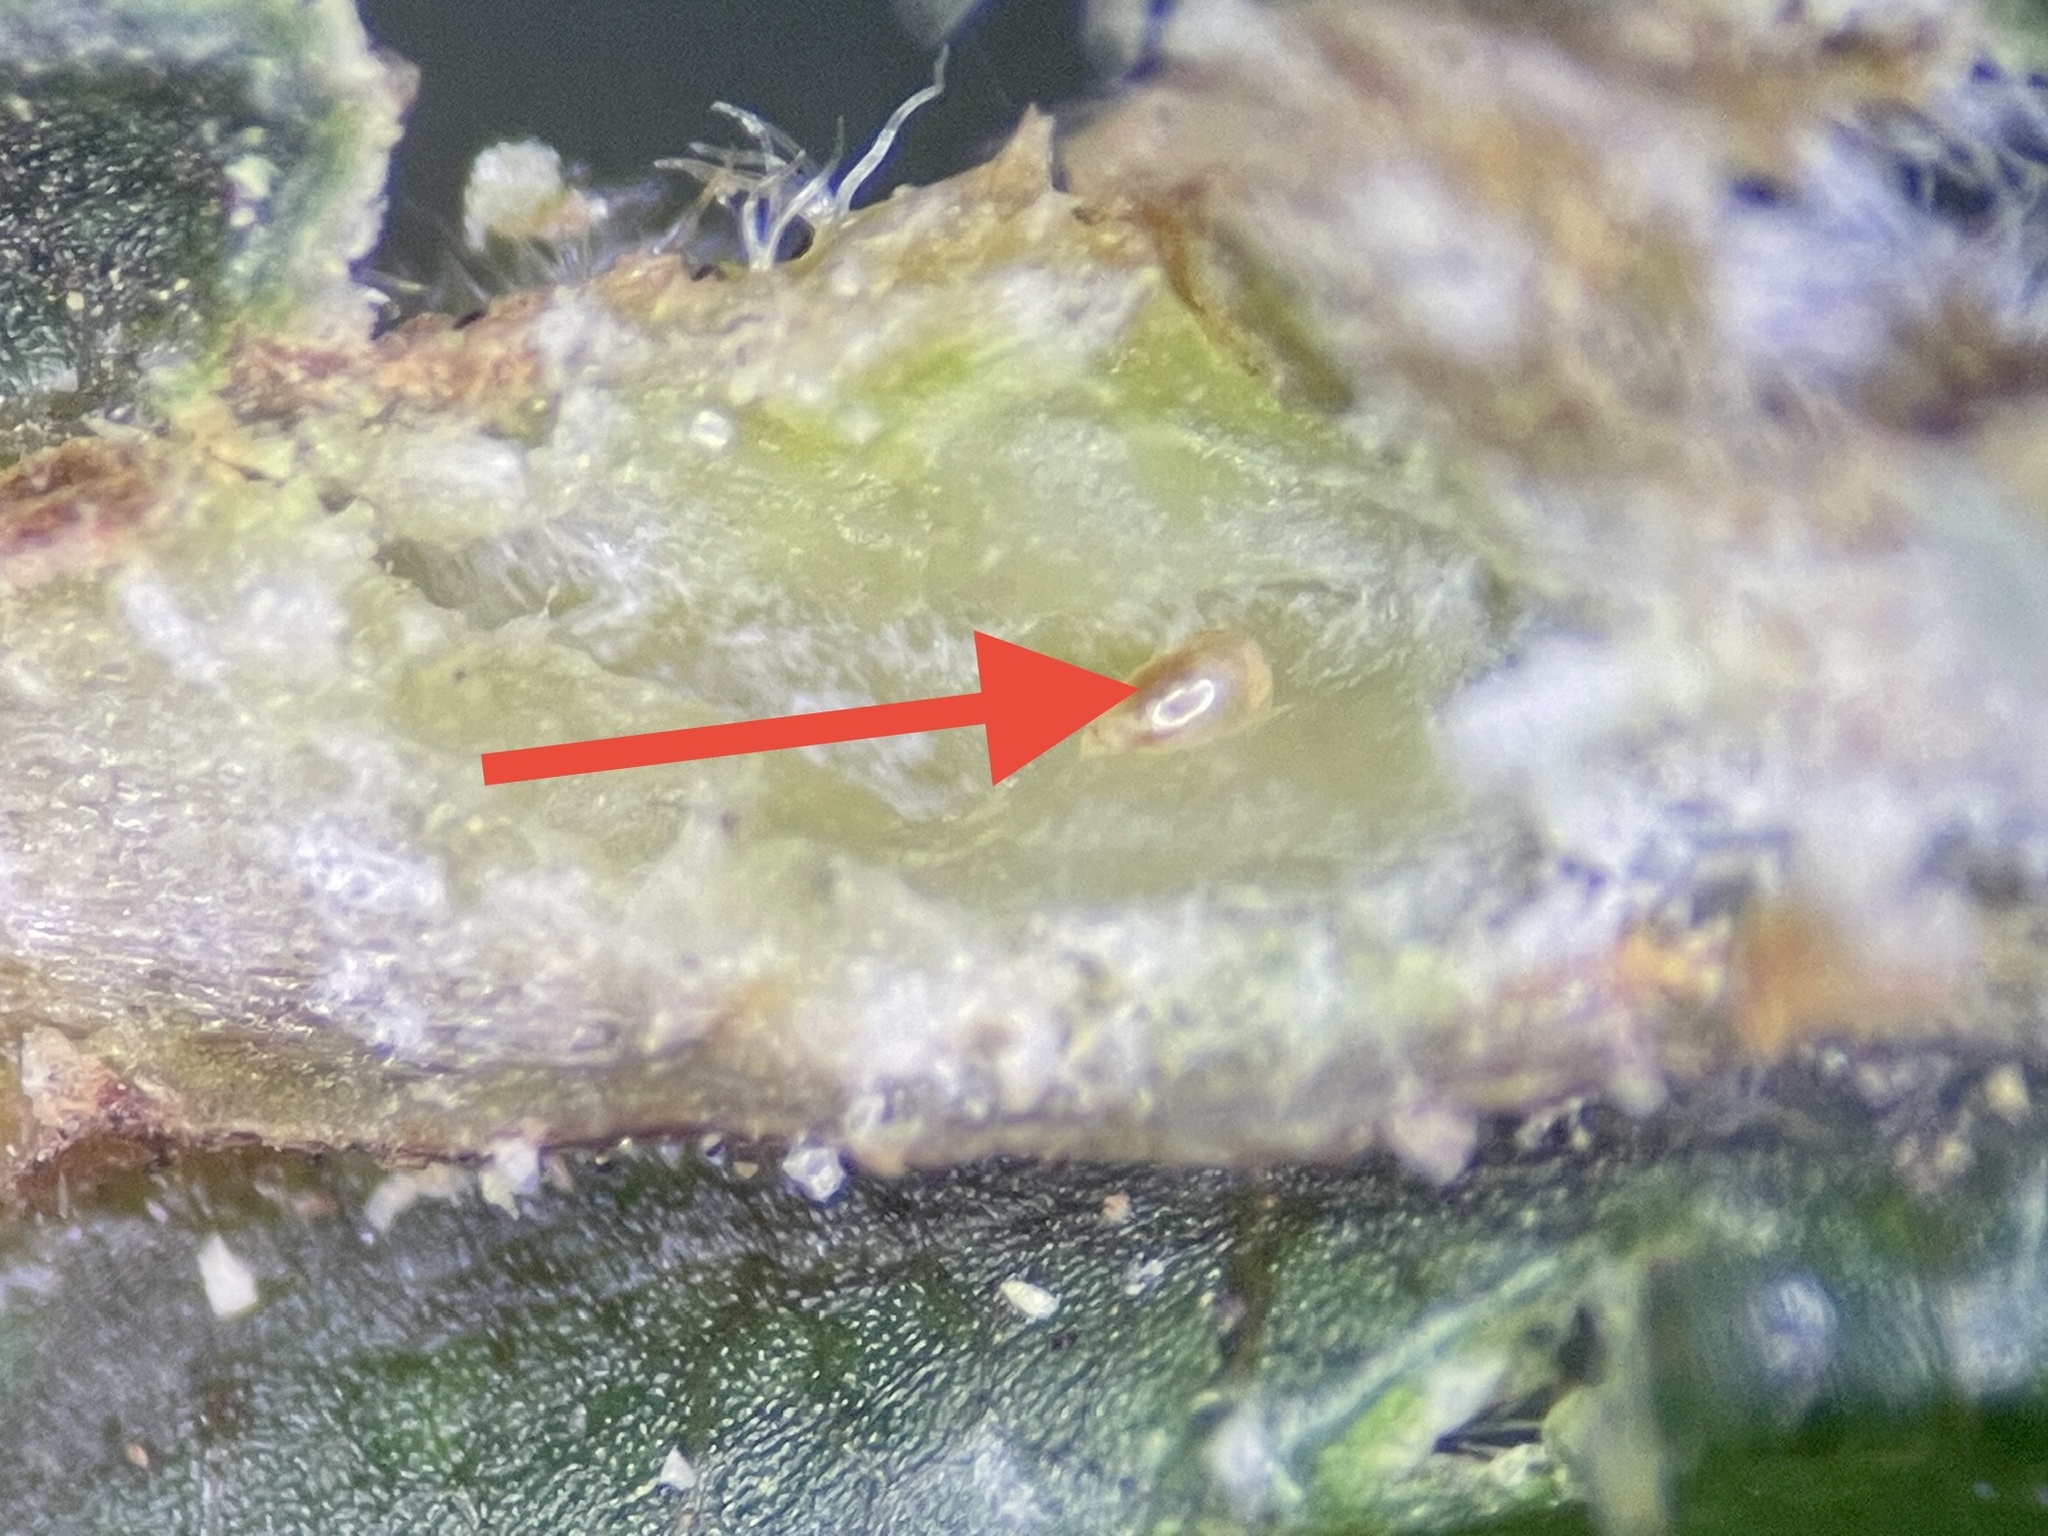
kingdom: Animalia
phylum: Arthropoda
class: Insecta
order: Diptera
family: Cecidomyiidae
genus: Caryadiplosis
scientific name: Caryadiplosis venicola
